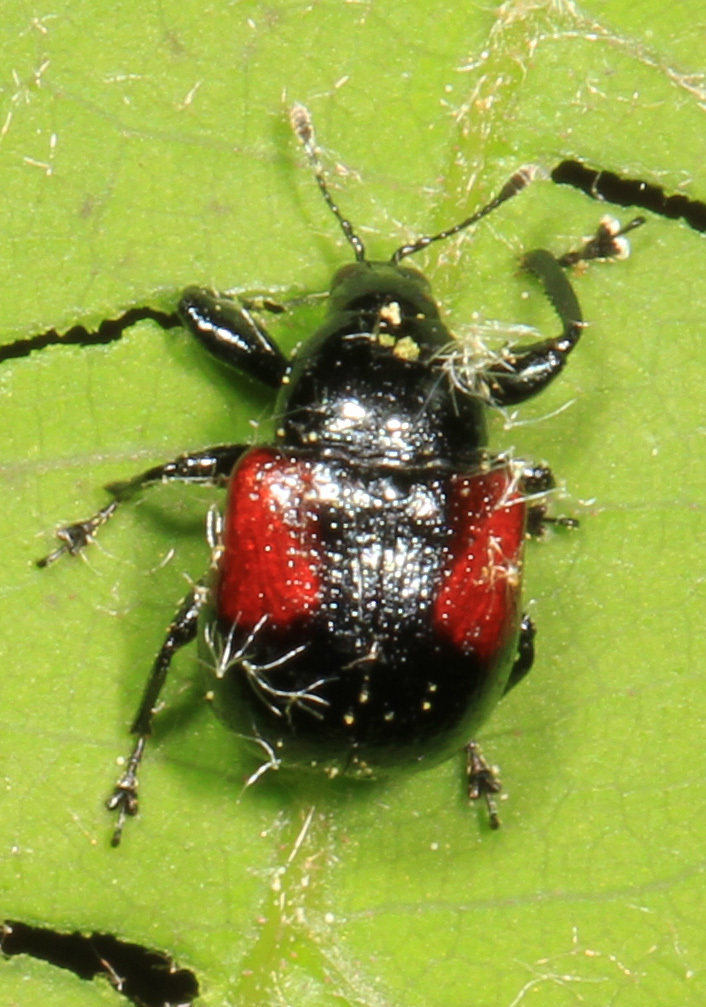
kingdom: Animalia
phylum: Arthropoda
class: Insecta
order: Coleoptera
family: Attelabidae
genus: Attelabus
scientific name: Attelabus bipustulatus
